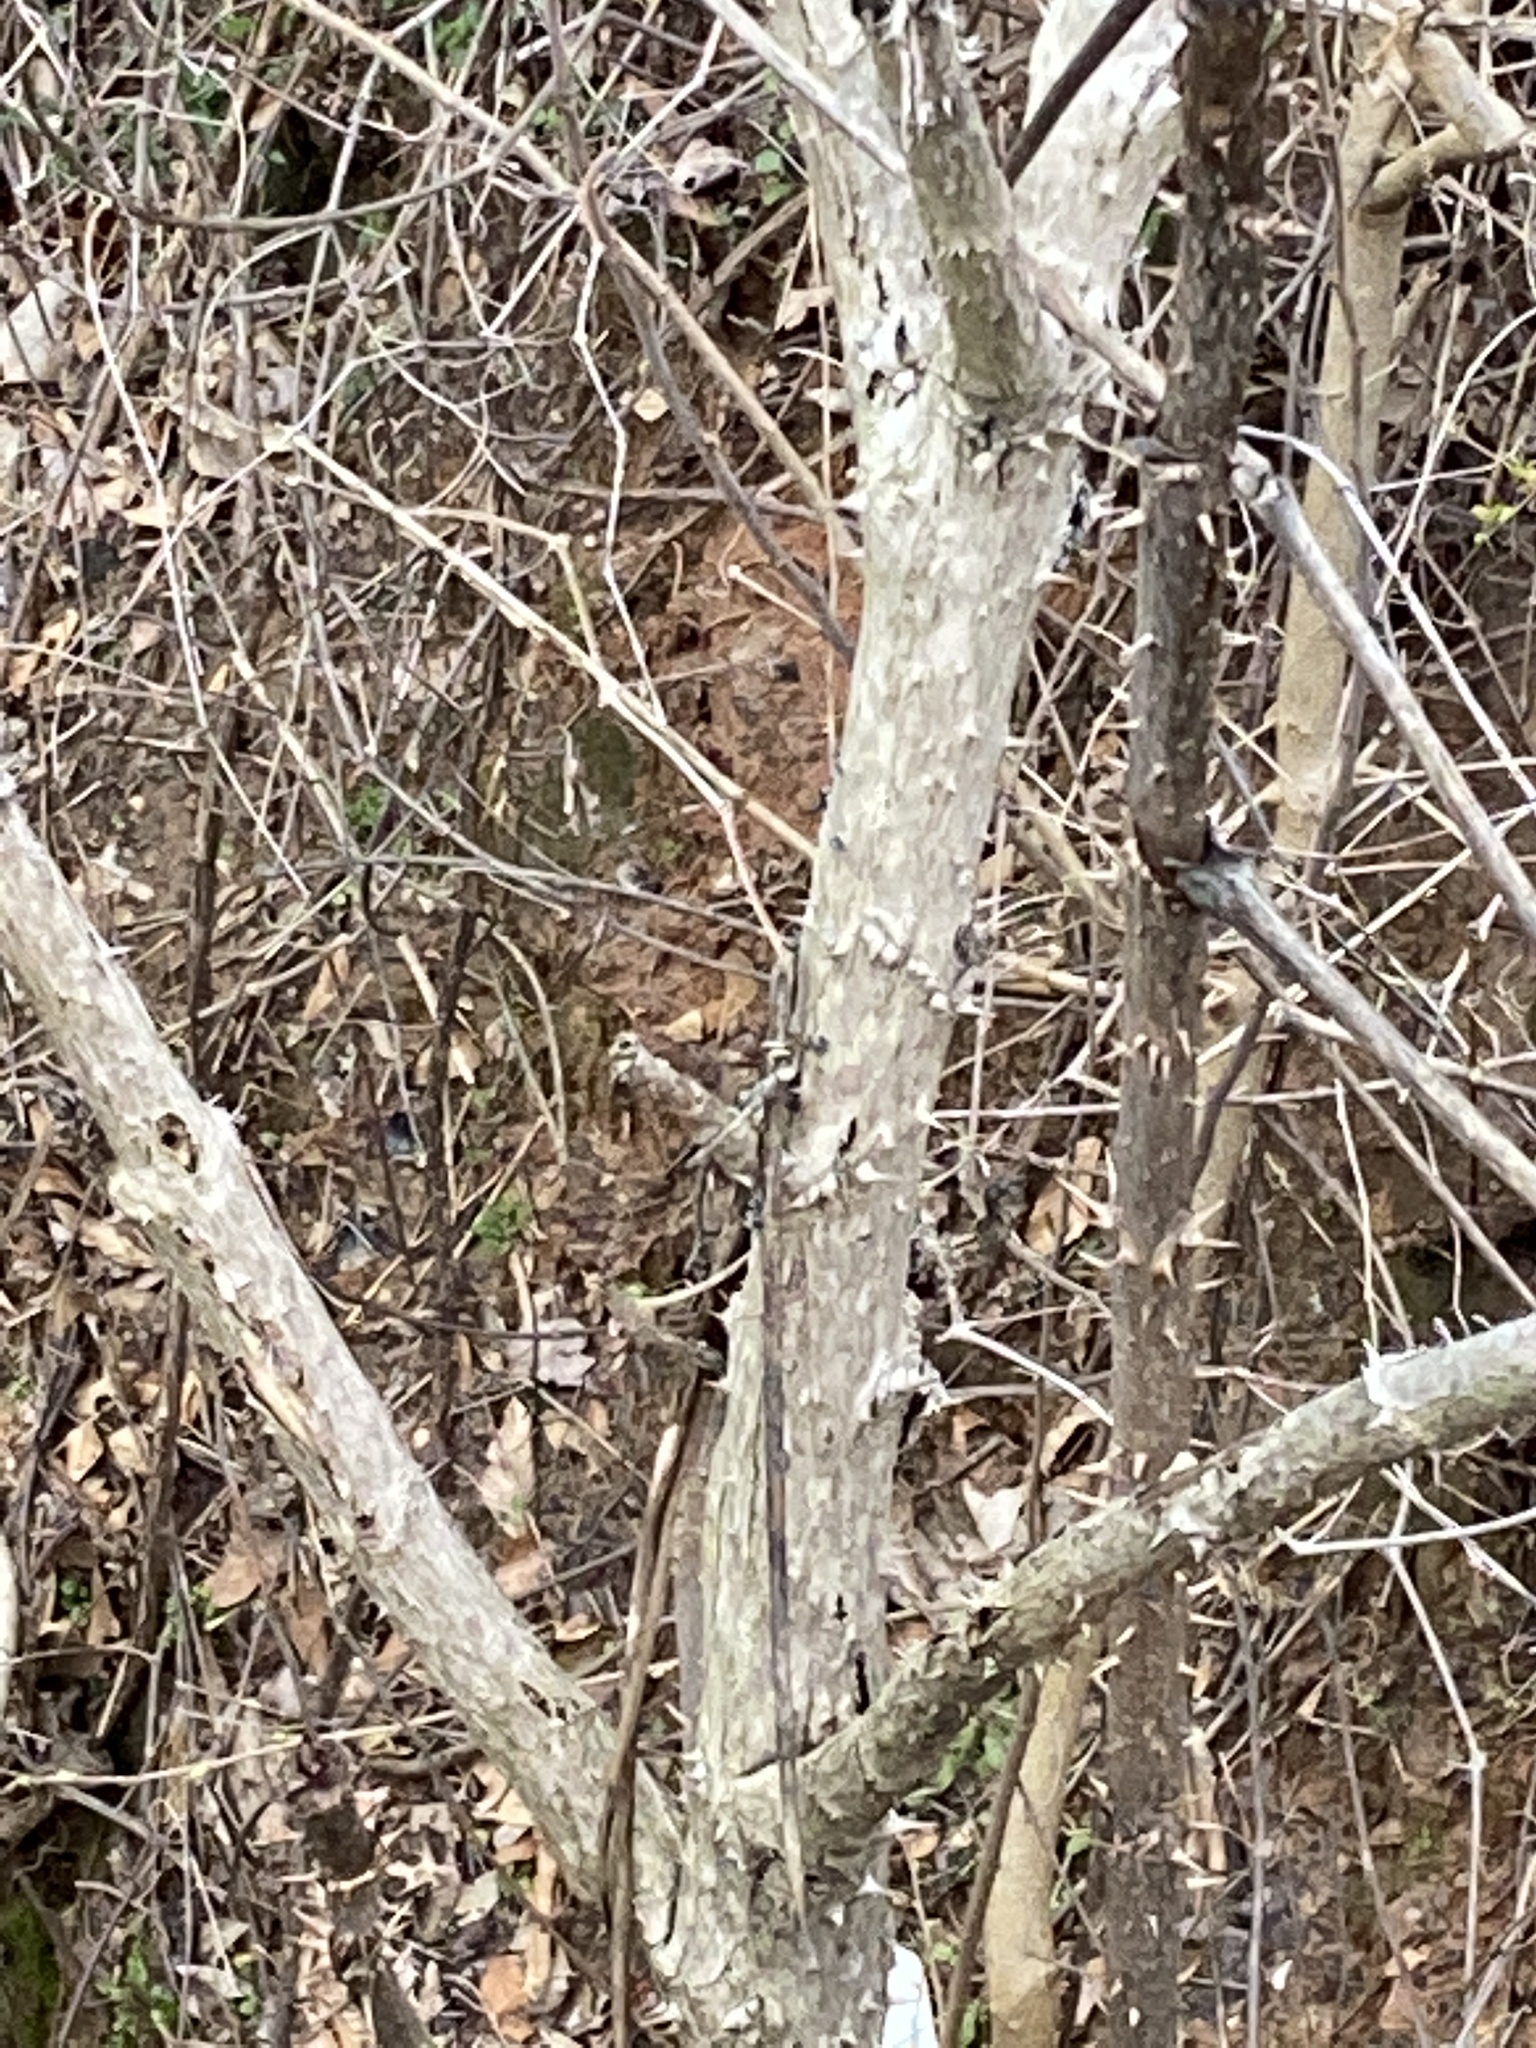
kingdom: Plantae
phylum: Tracheophyta
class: Magnoliopsida
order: Apiales
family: Araliaceae
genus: Aralia
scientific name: Aralia spinosa
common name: Hercules'-club
